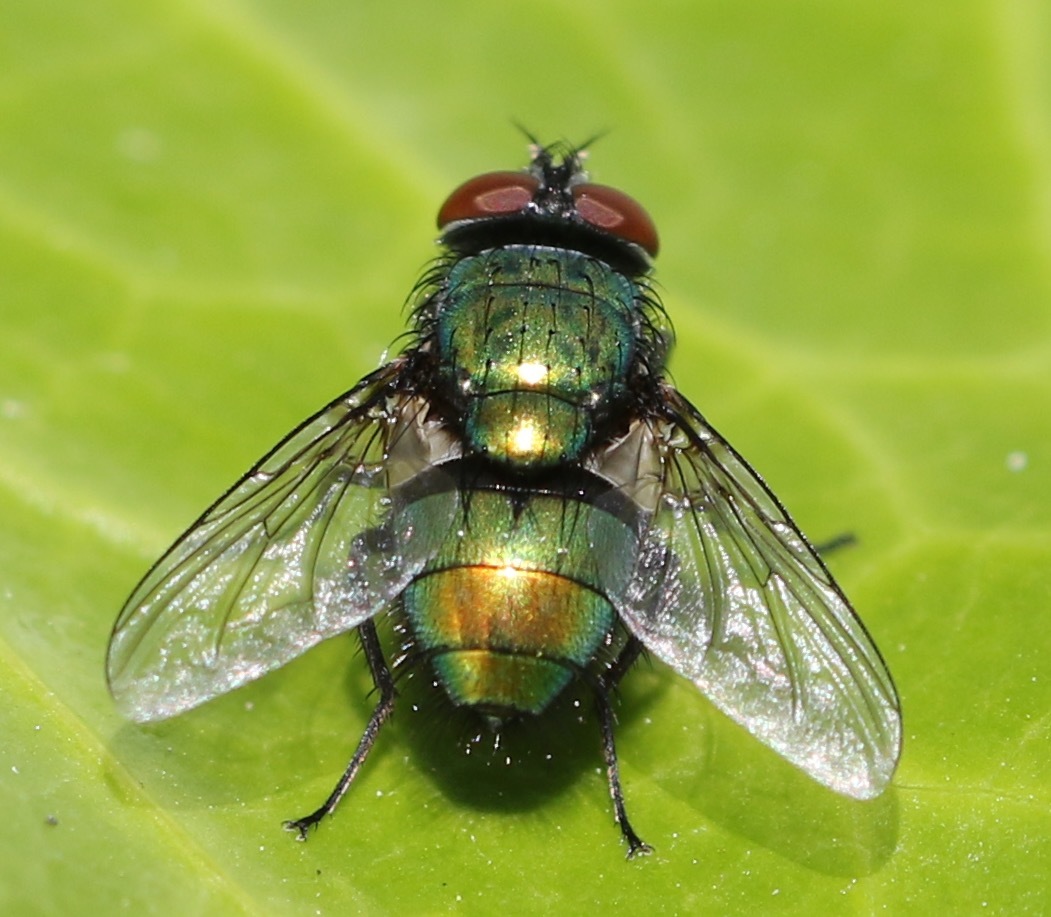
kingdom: Animalia
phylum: Arthropoda
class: Insecta
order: Diptera
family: Calliphoridae
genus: Lucilia
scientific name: Lucilia sericata
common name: Blow fly
